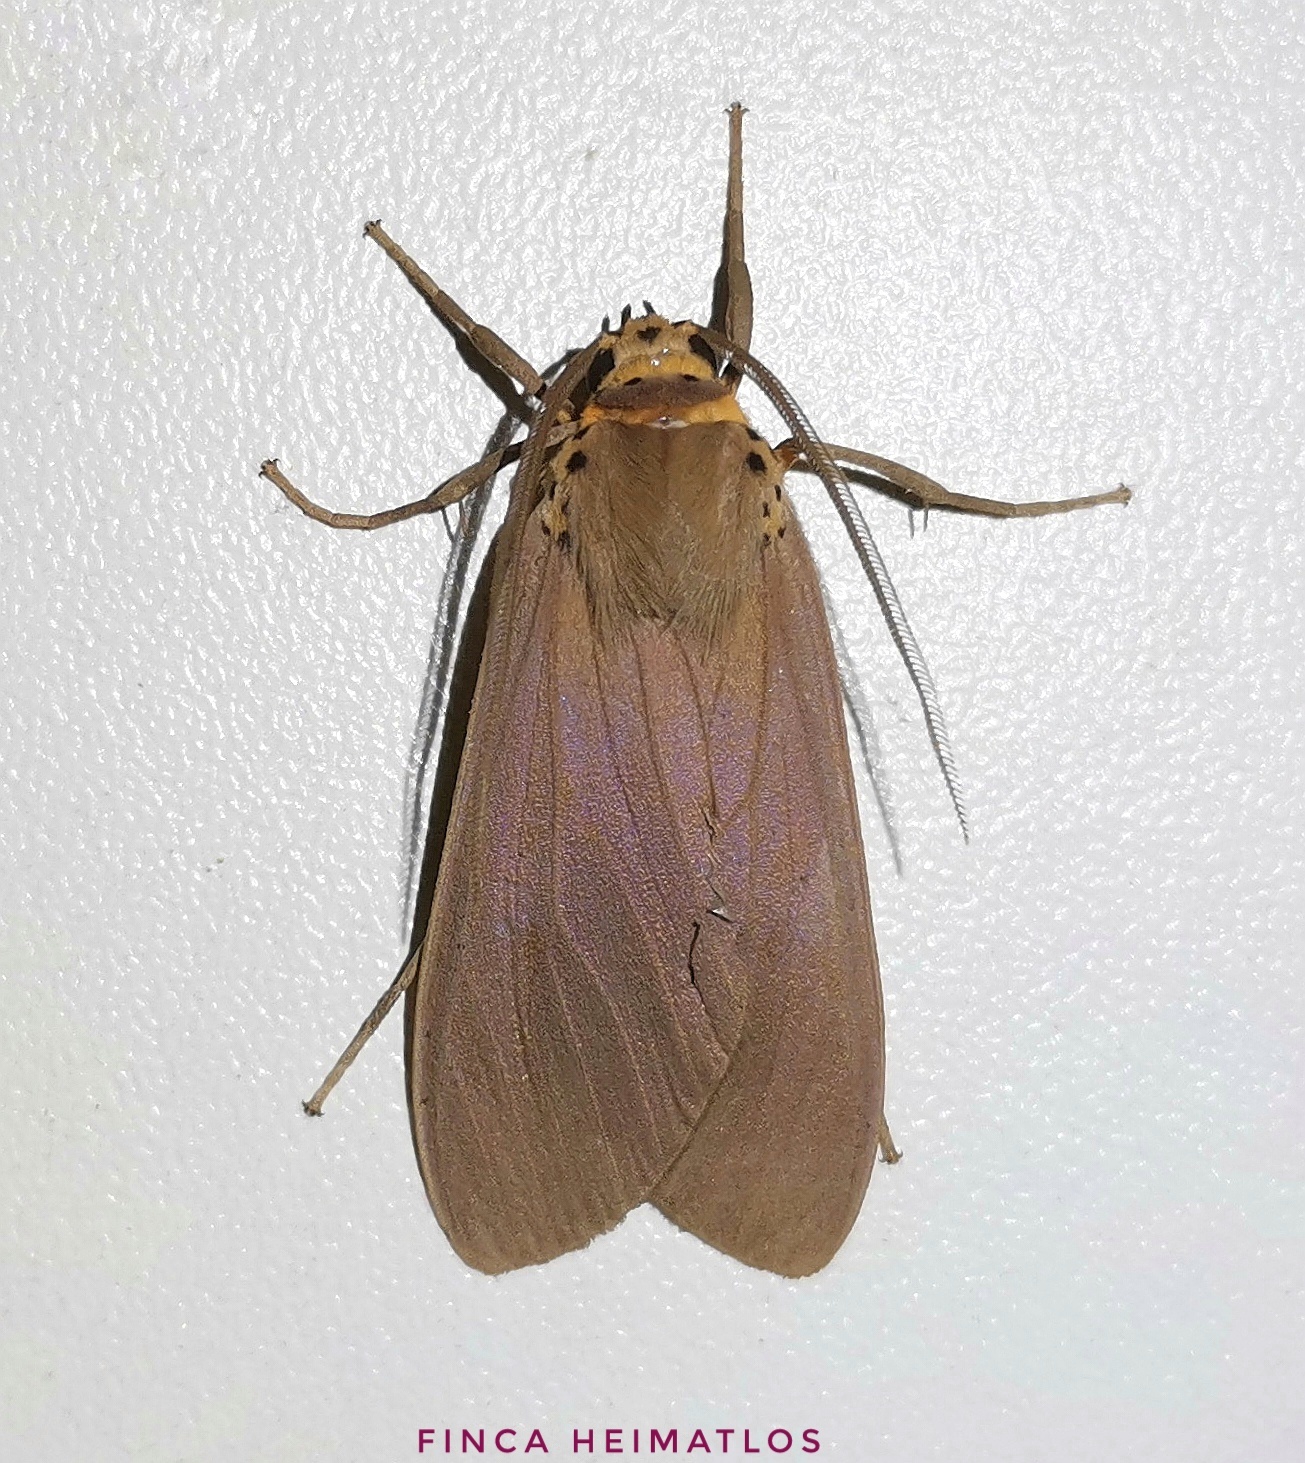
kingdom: Animalia
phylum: Arthropoda
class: Insecta
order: Lepidoptera
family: Erebidae
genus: Pelochyta
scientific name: Pelochyta affinis
